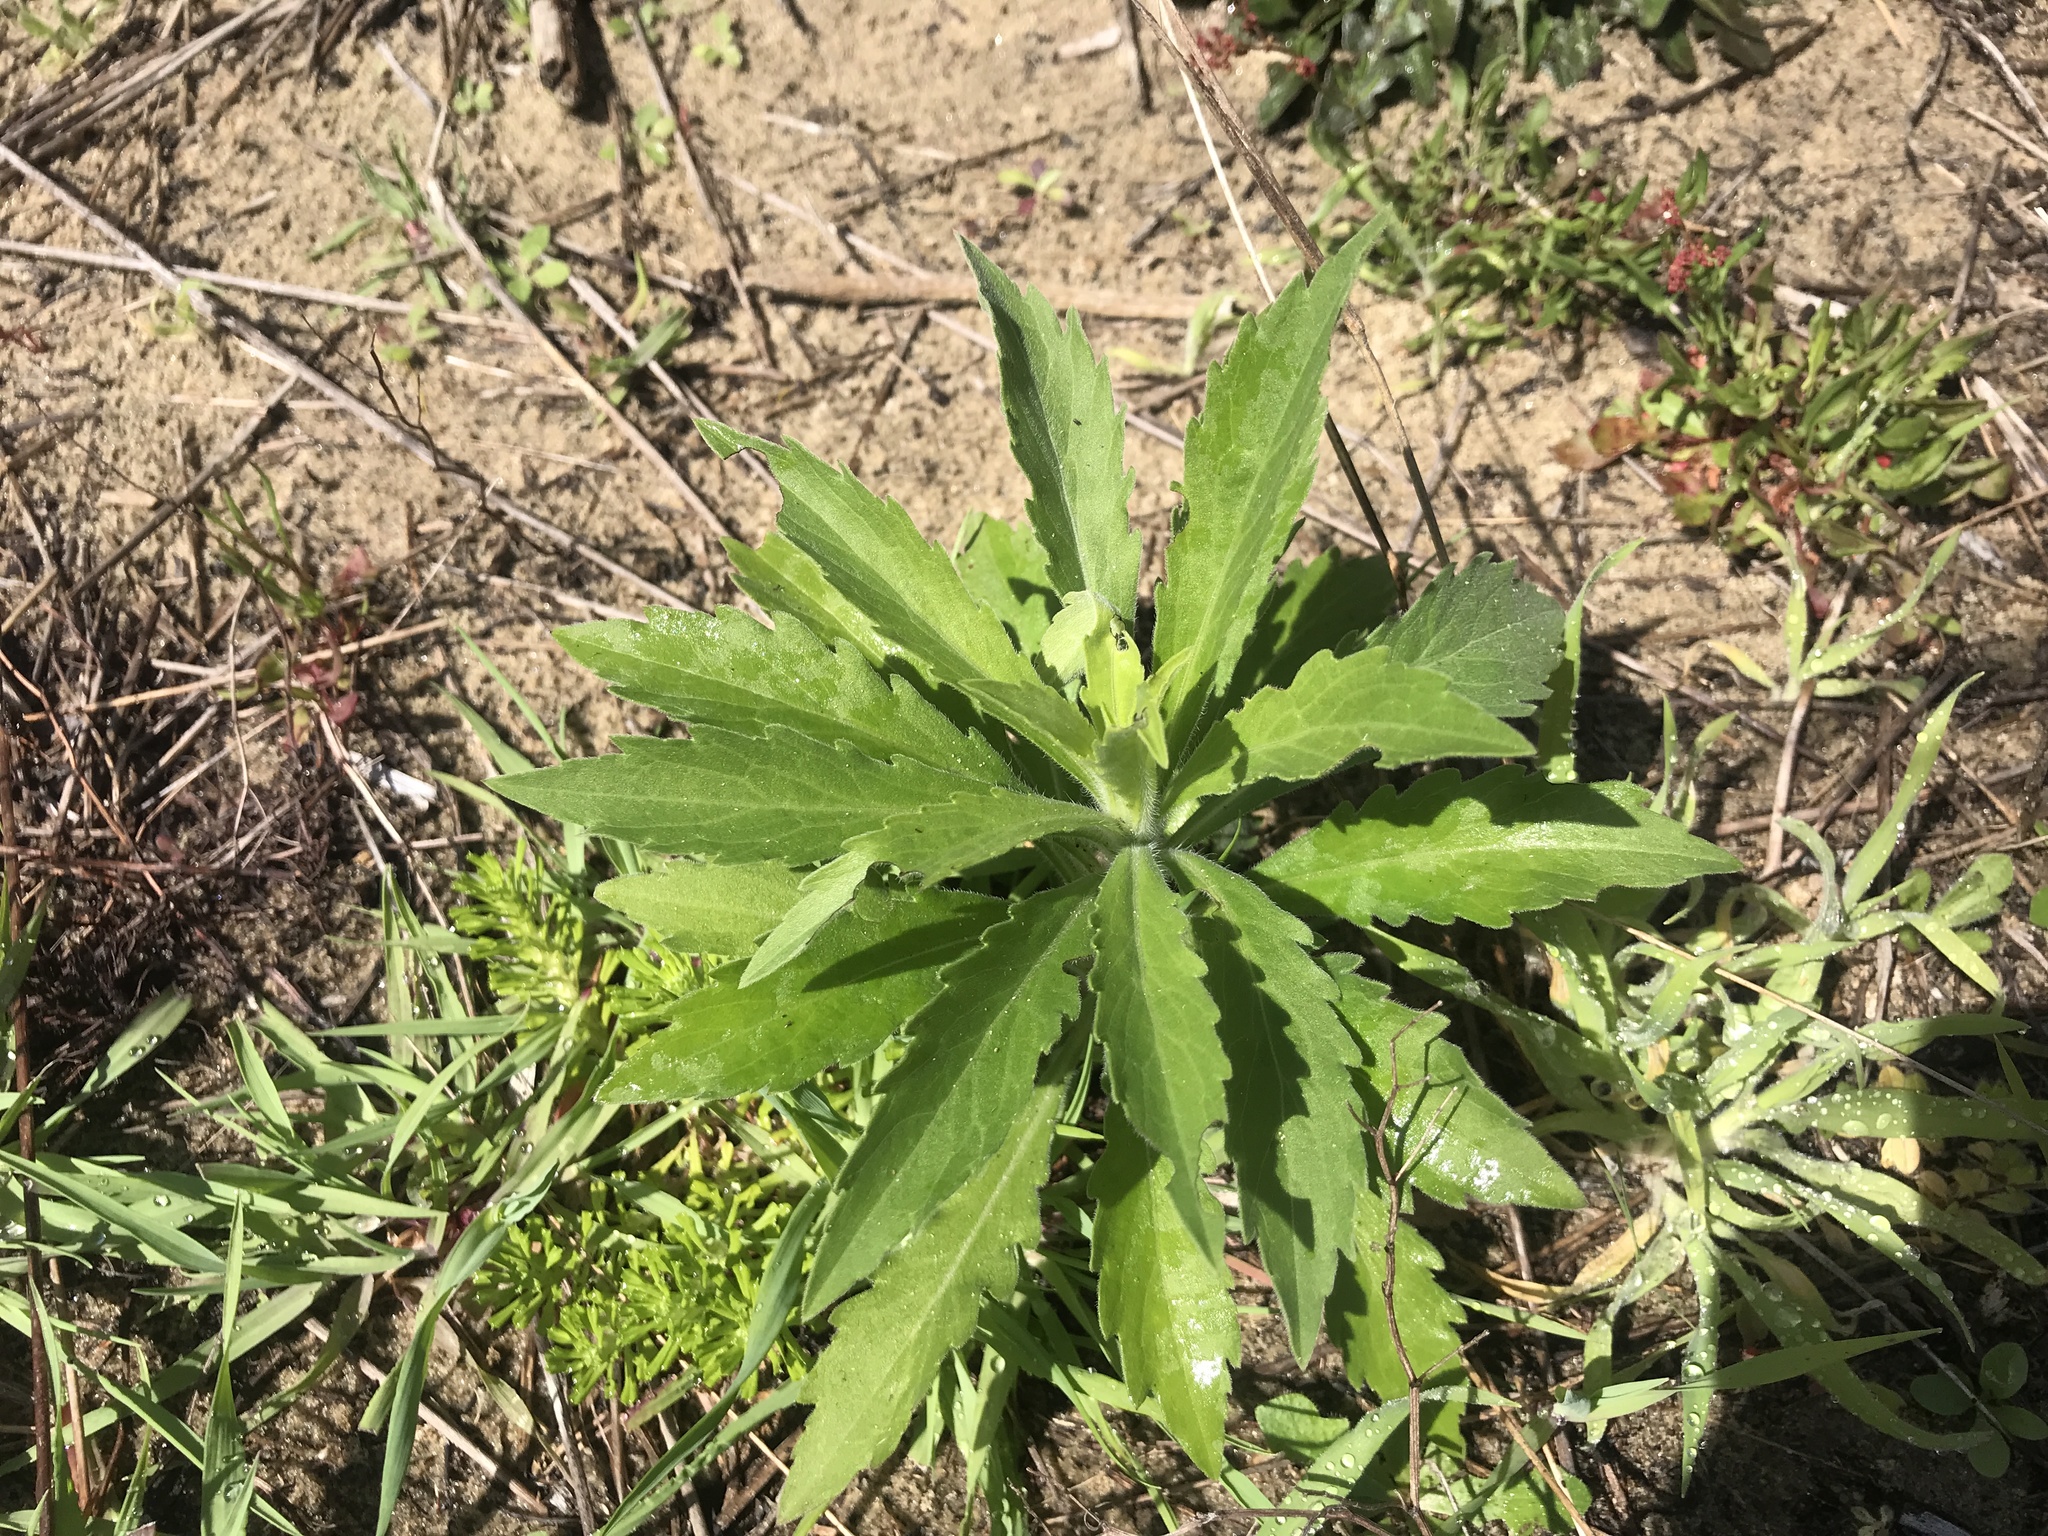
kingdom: Plantae
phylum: Tracheophyta
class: Magnoliopsida
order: Asterales
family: Asteraceae
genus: Erigeron
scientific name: Erigeron sumatrensis
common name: Daisy
